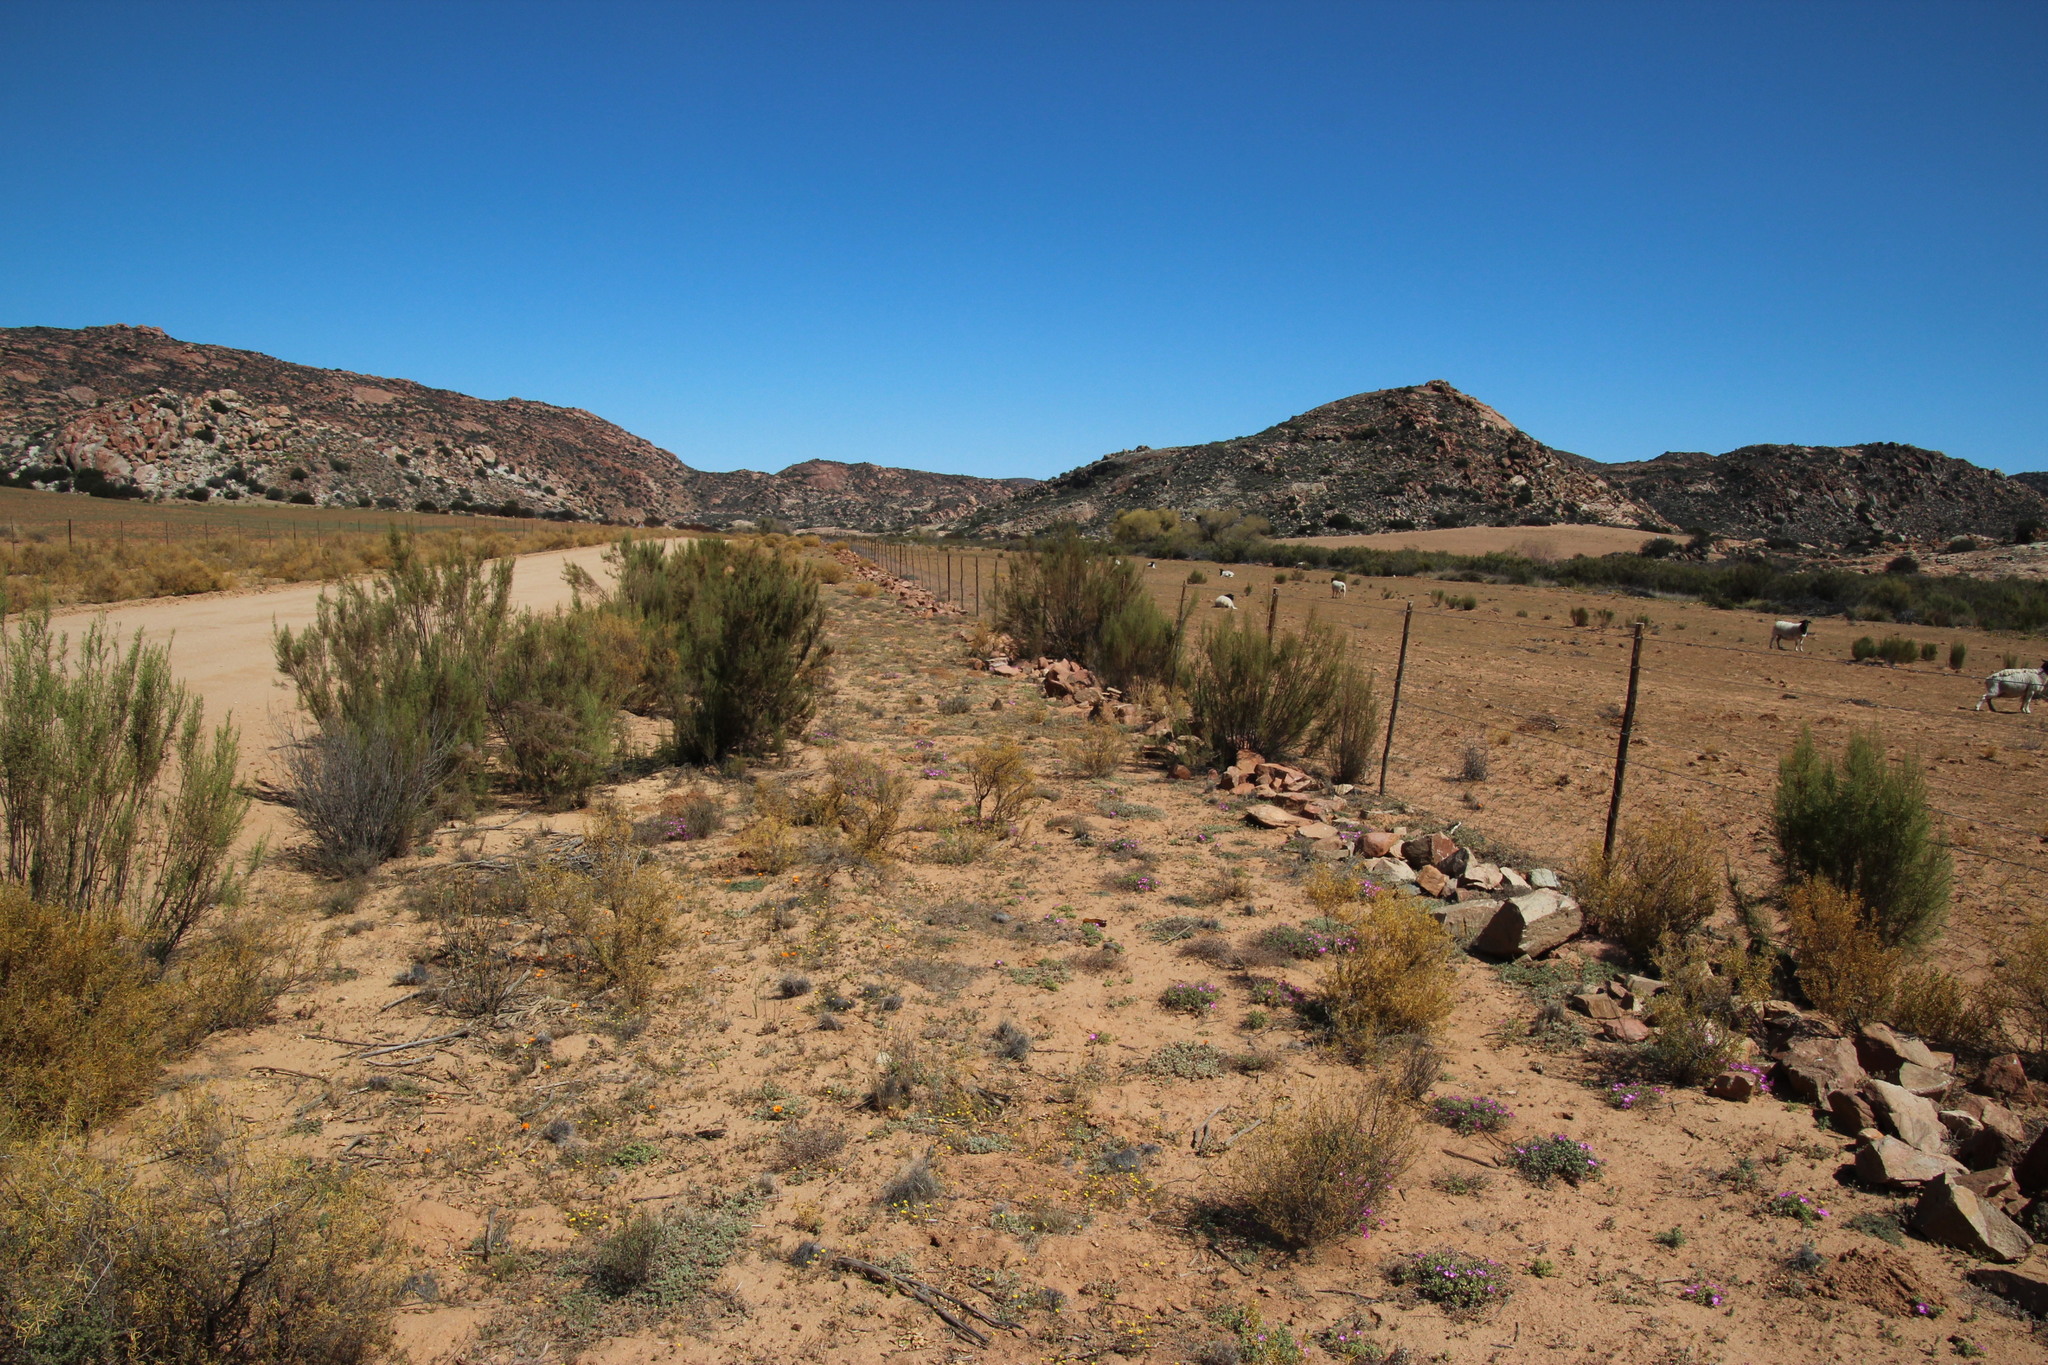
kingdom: Plantae
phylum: Tracheophyta
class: Magnoliopsida
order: Asterales
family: Asteraceae
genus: Dicerothamnus
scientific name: Dicerothamnus rhinocerotis
